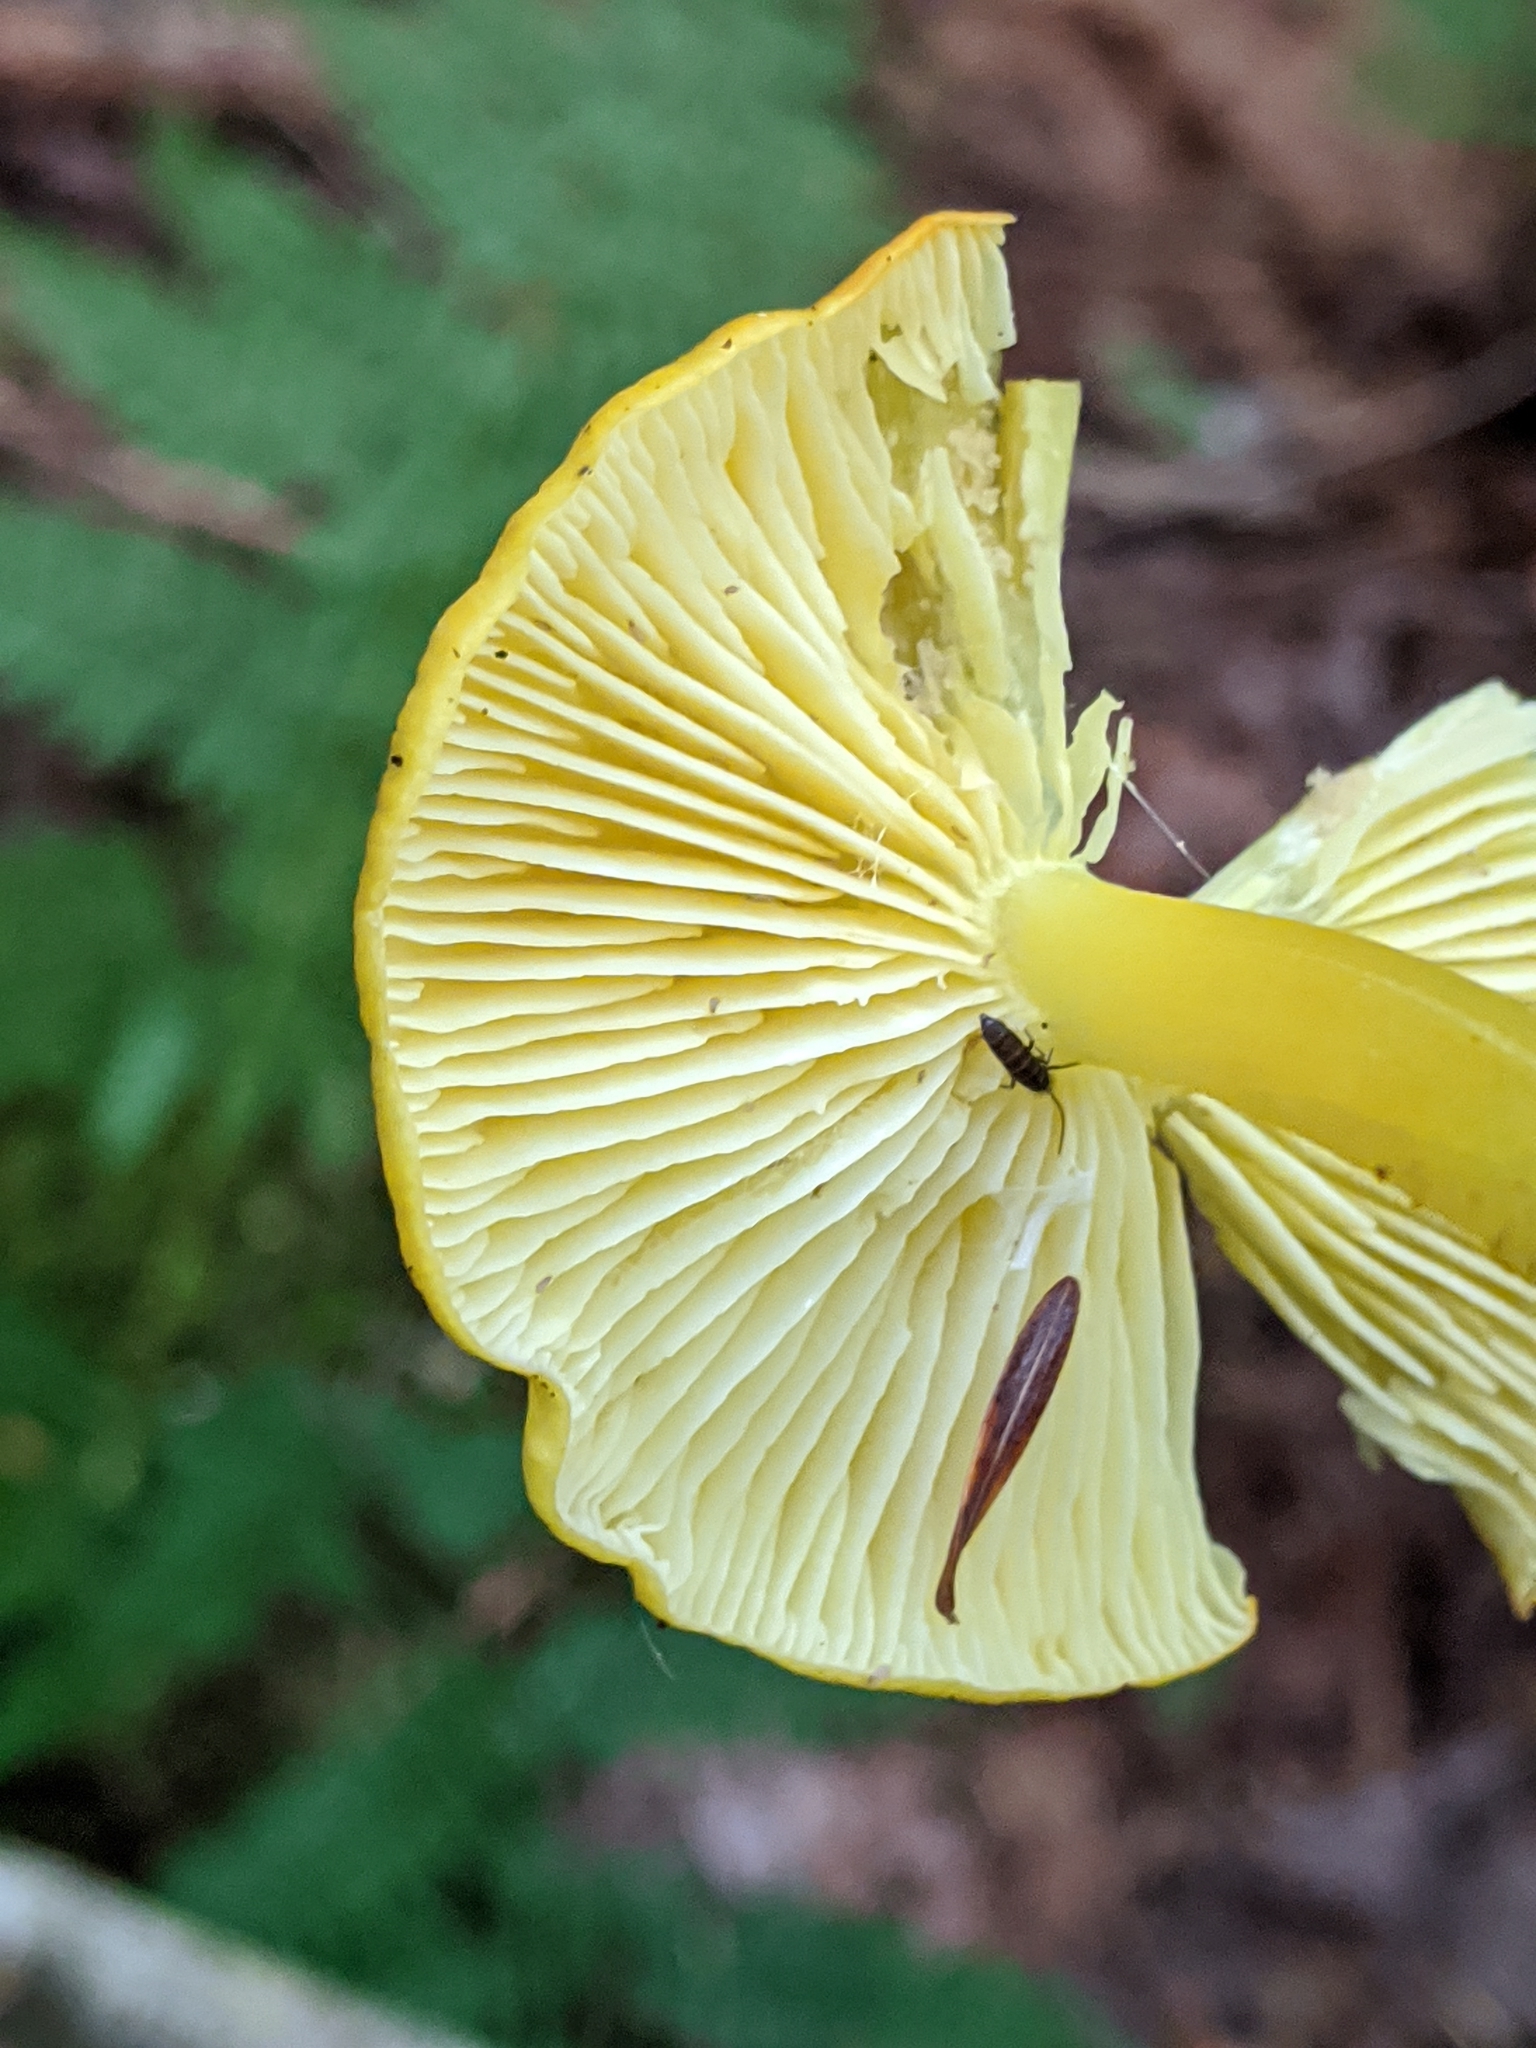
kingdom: Fungi
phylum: Basidiomycota
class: Agaricomycetes
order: Agaricales
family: Hygrophoraceae
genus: Hygrocybe
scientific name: Hygrocybe chlorophana
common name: Golden waxcap
